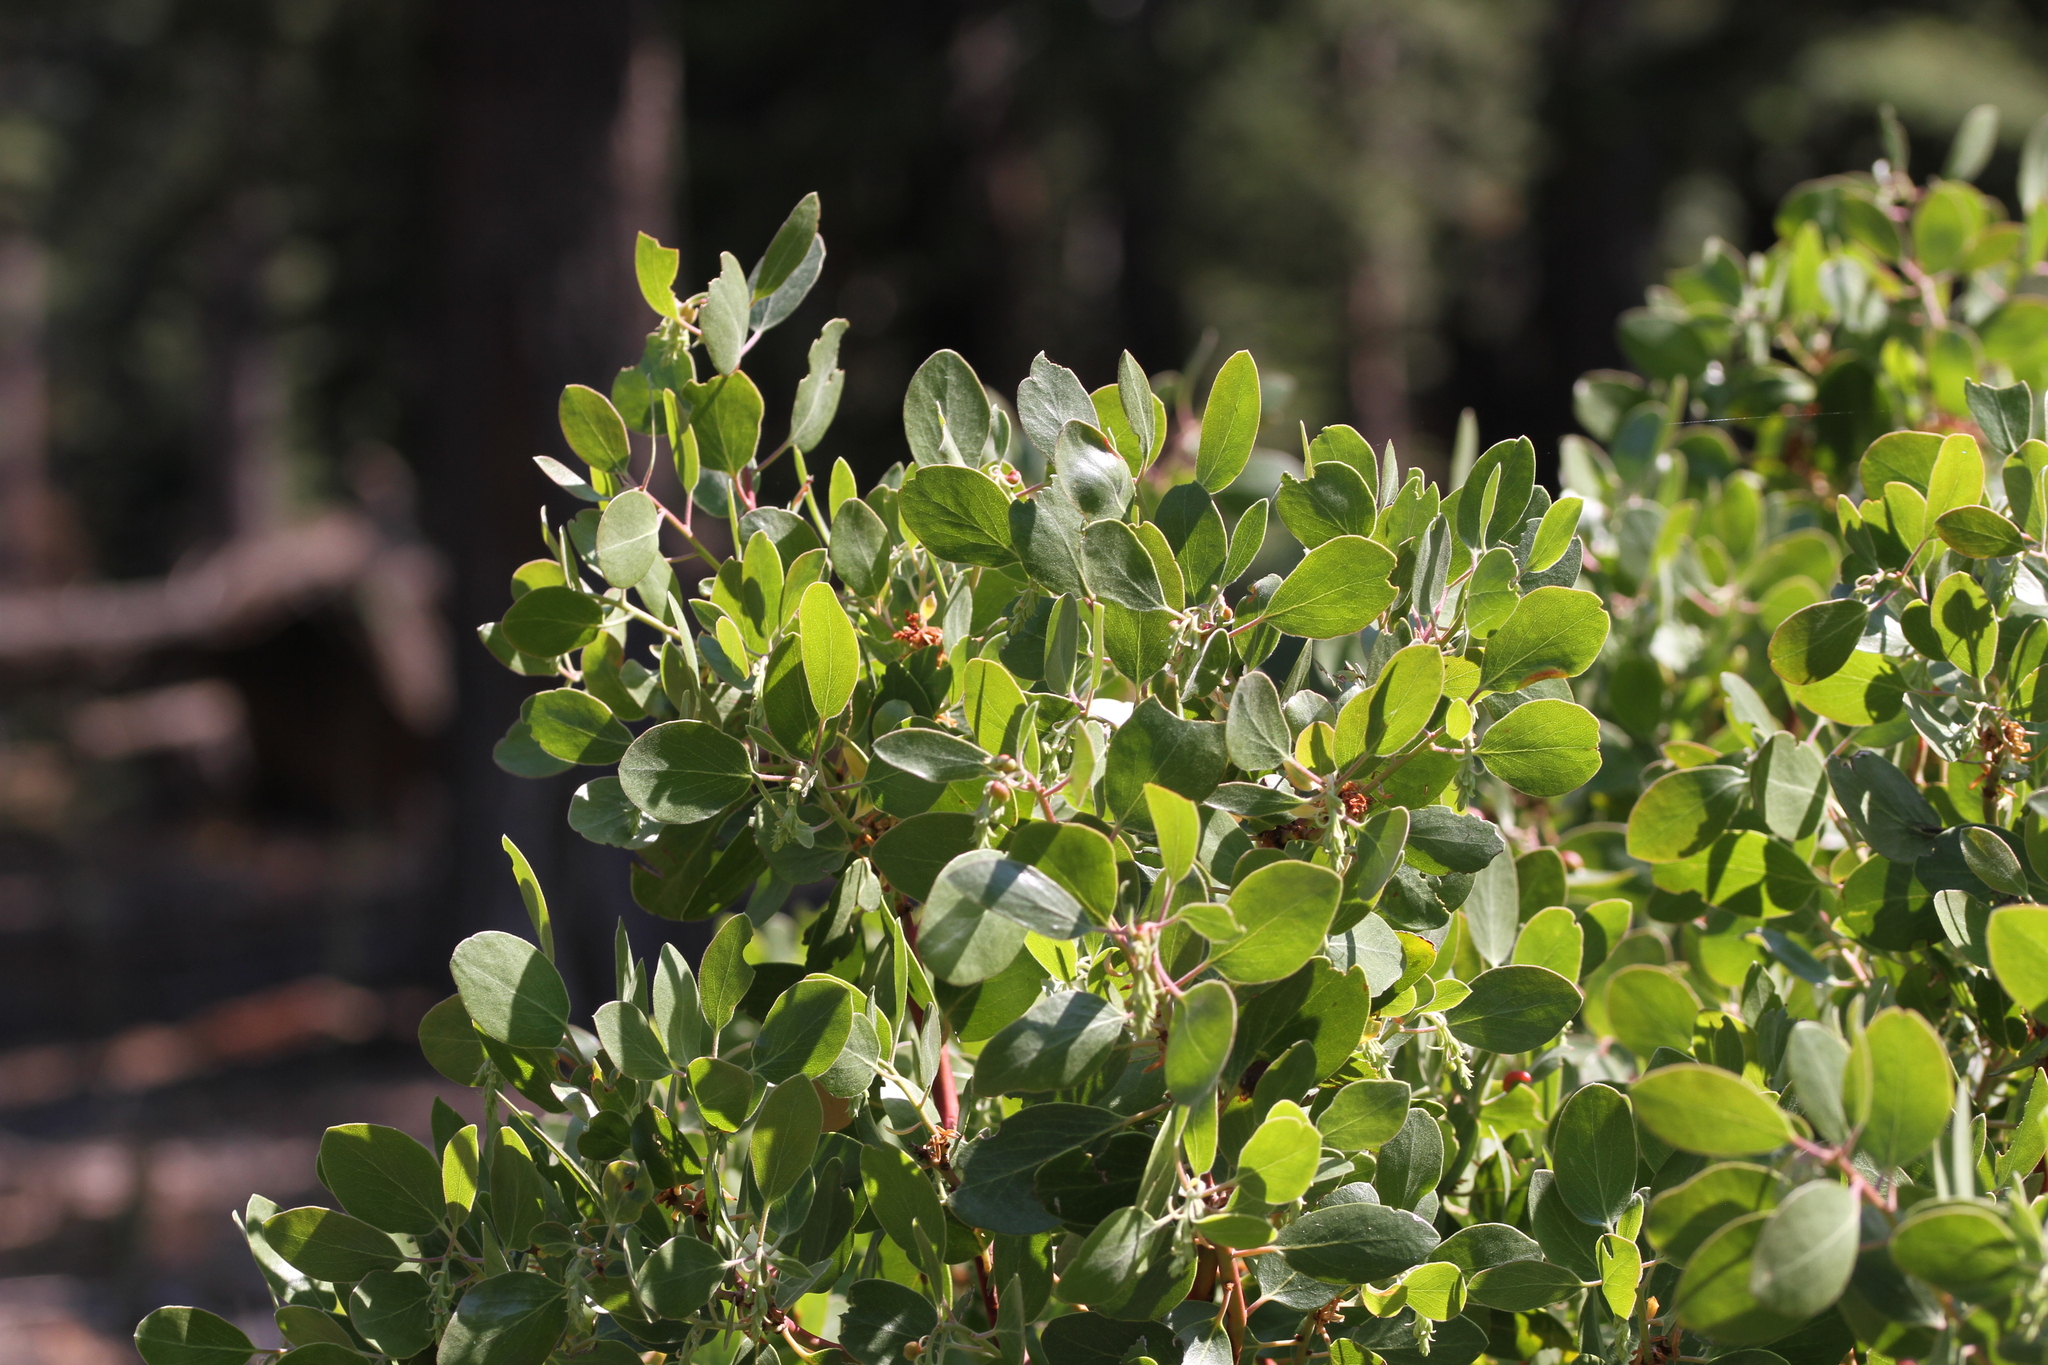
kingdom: Plantae
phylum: Tracheophyta
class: Magnoliopsida
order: Ericales
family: Ericaceae
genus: Arctostaphylos
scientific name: Arctostaphylos patula
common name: Green-leaf manzanita
